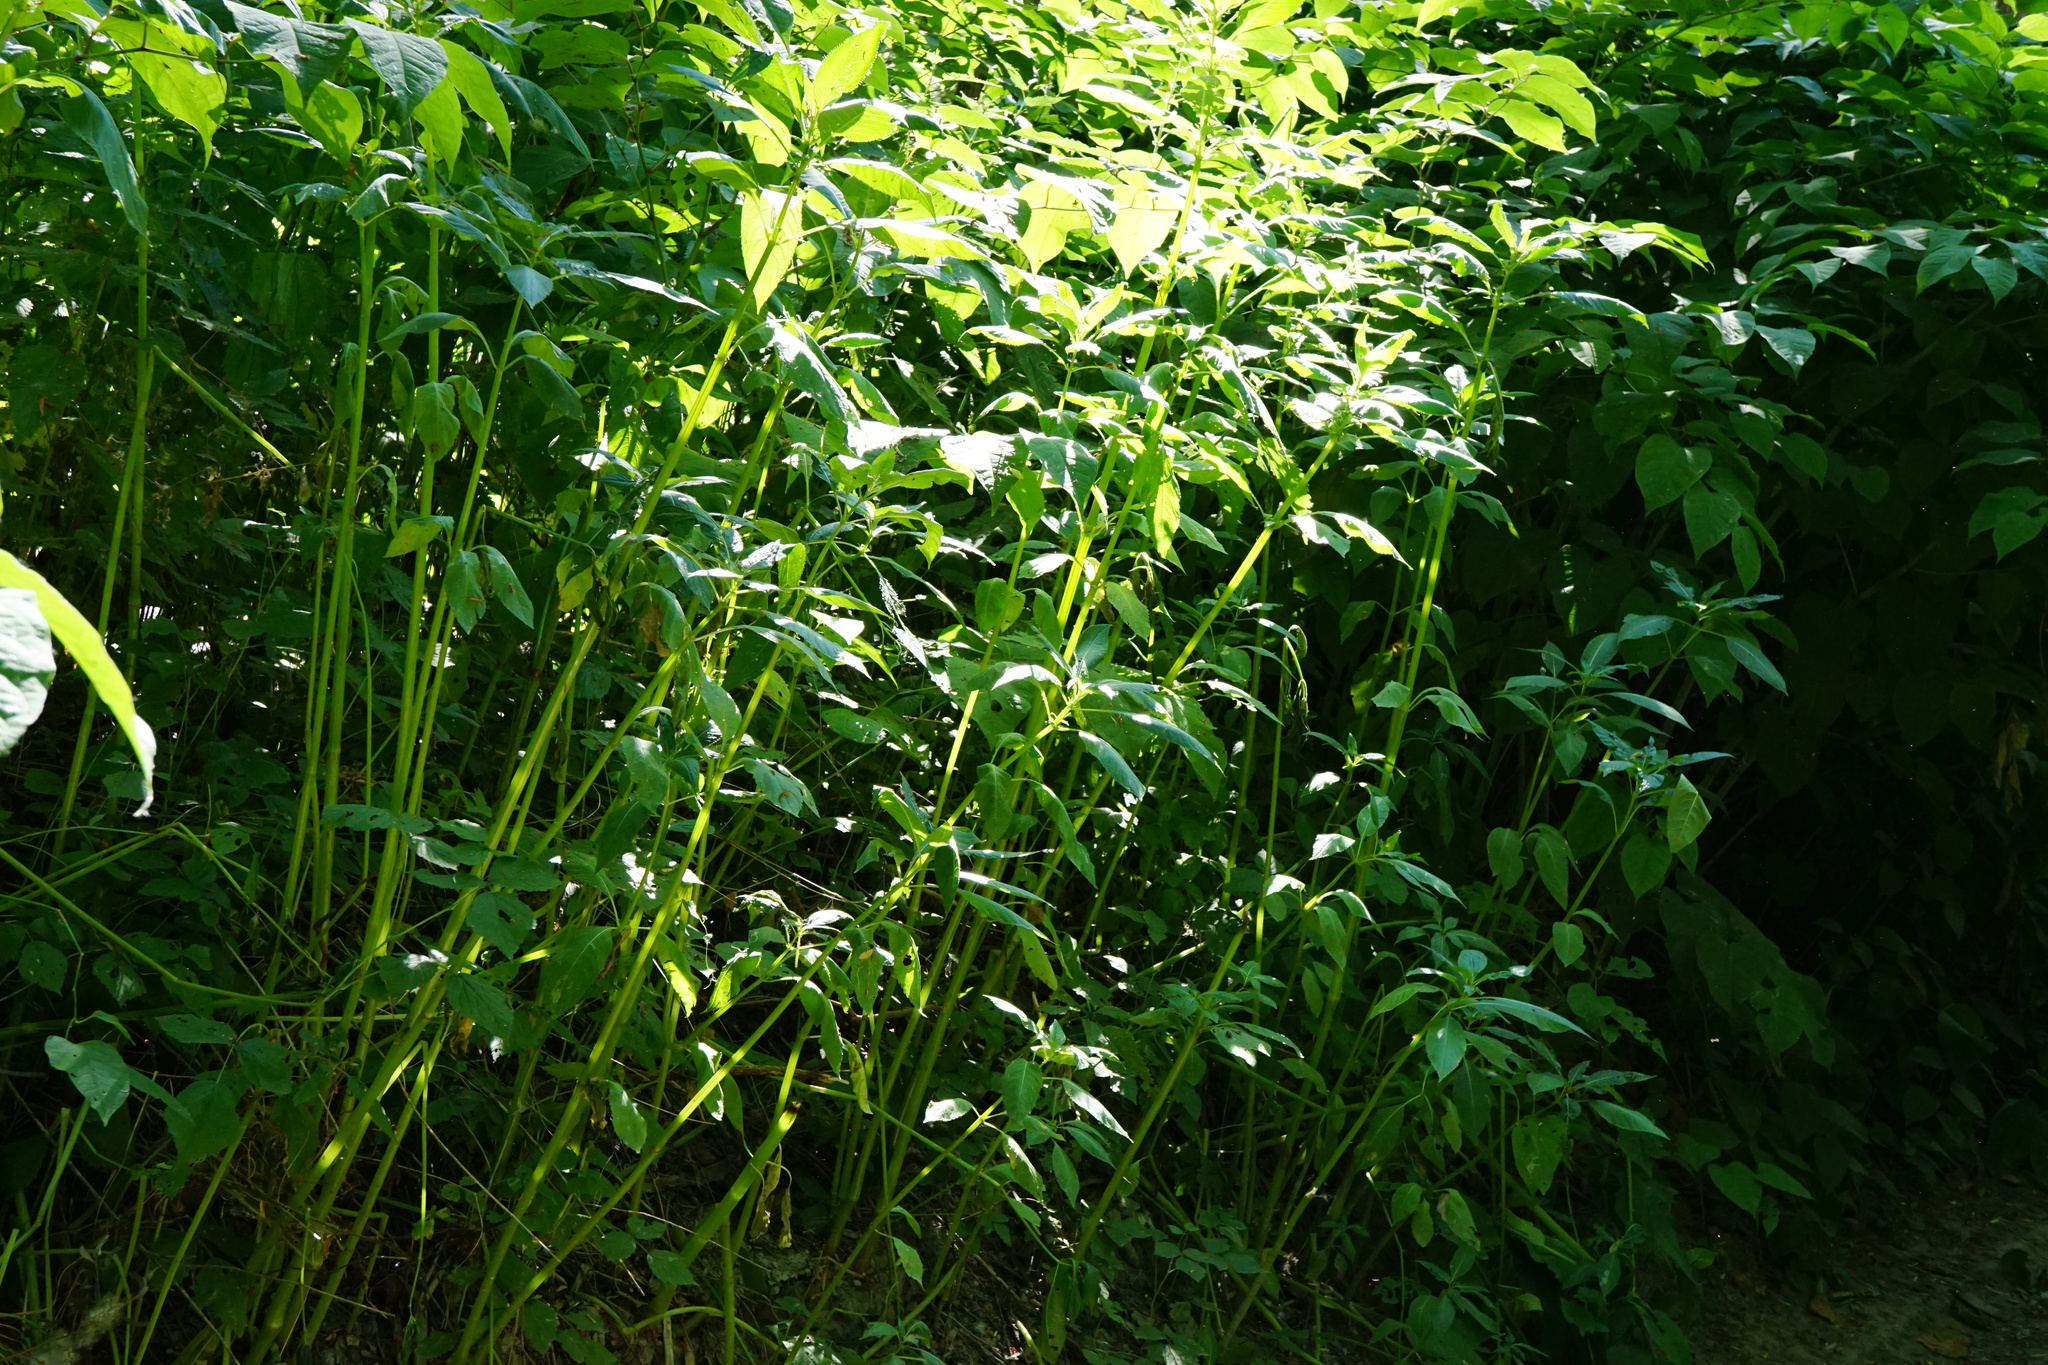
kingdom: Plantae
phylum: Tracheophyta
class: Magnoliopsida
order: Ericales
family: Balsaminaceae
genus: Impatiens
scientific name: Impatiens glandulifera
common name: Himalayan balsam
